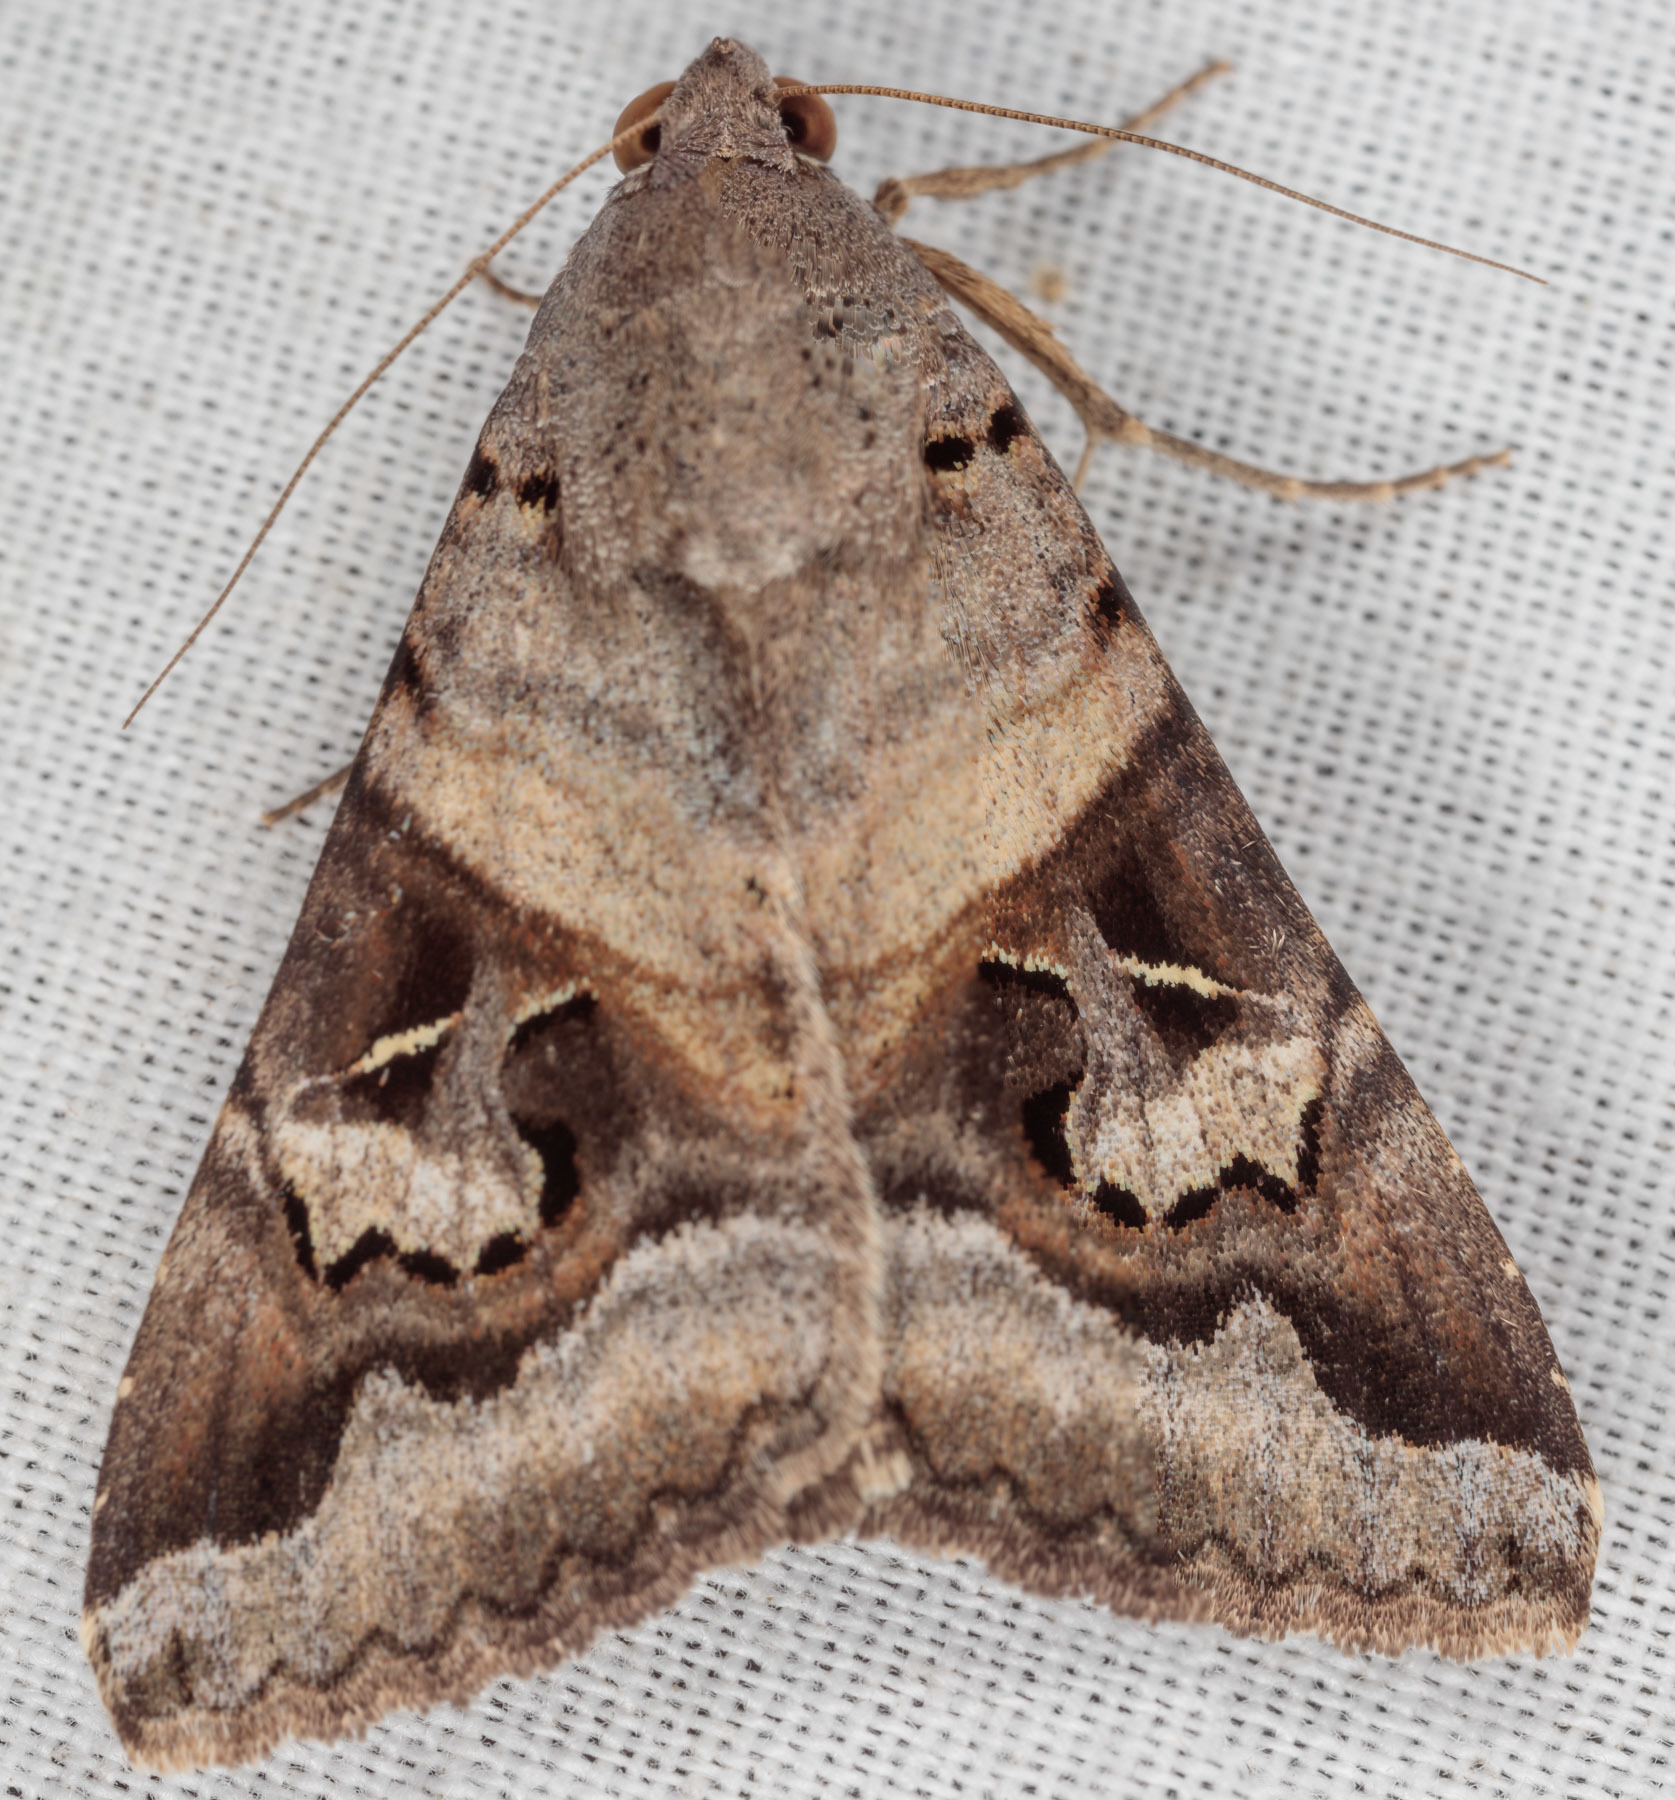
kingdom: Animalia
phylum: Arthropoda
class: Insecta
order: Lepidoptera
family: Erebidae
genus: Melipotis
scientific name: Melipotis indomita
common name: Moth
